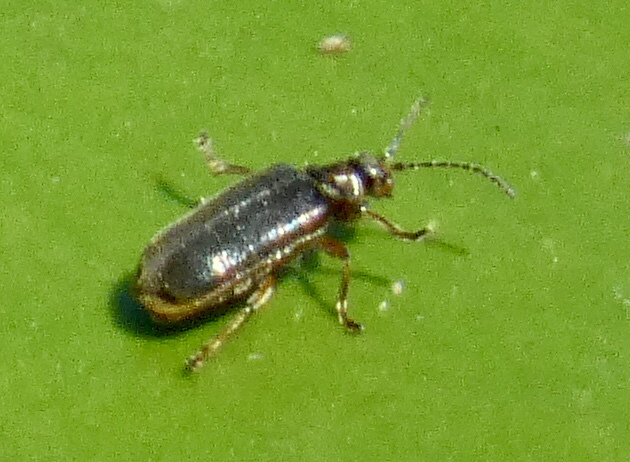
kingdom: Animalia
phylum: Arthropoda
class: Insecta
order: Coleoptera
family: Chrysomelidae
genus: Galerucella
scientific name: Galerucella nymphaeae
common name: Leaf beetle
